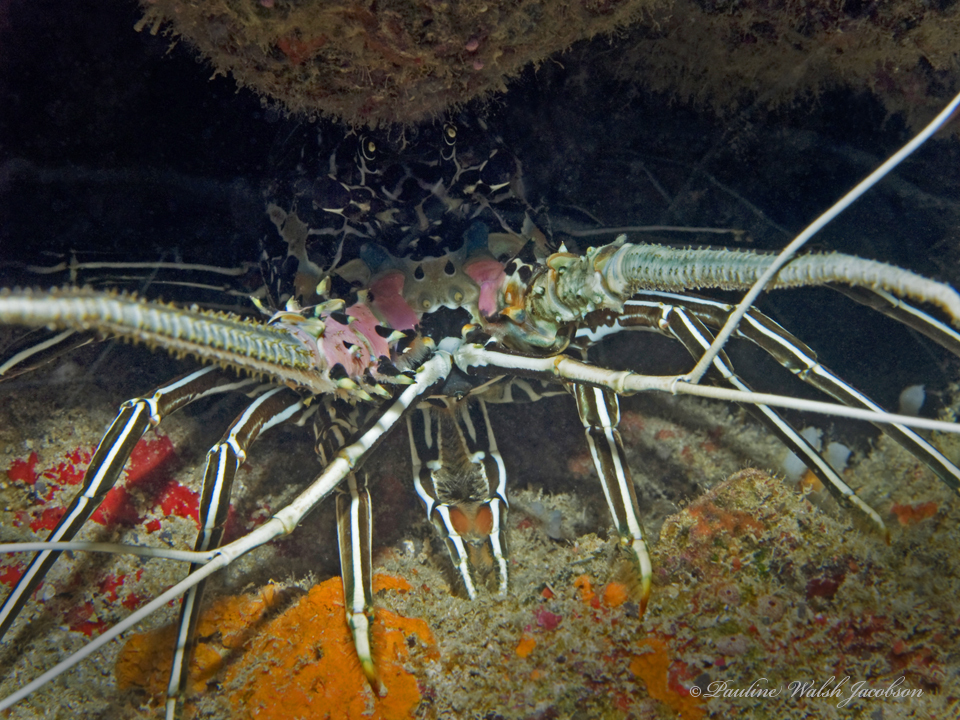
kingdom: Animalia
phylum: Arthropoda
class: Malacostraca
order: Decapoda
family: Palinuridae
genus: Panulirus
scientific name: Panulirus versicolor
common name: Painted spiny lobster
